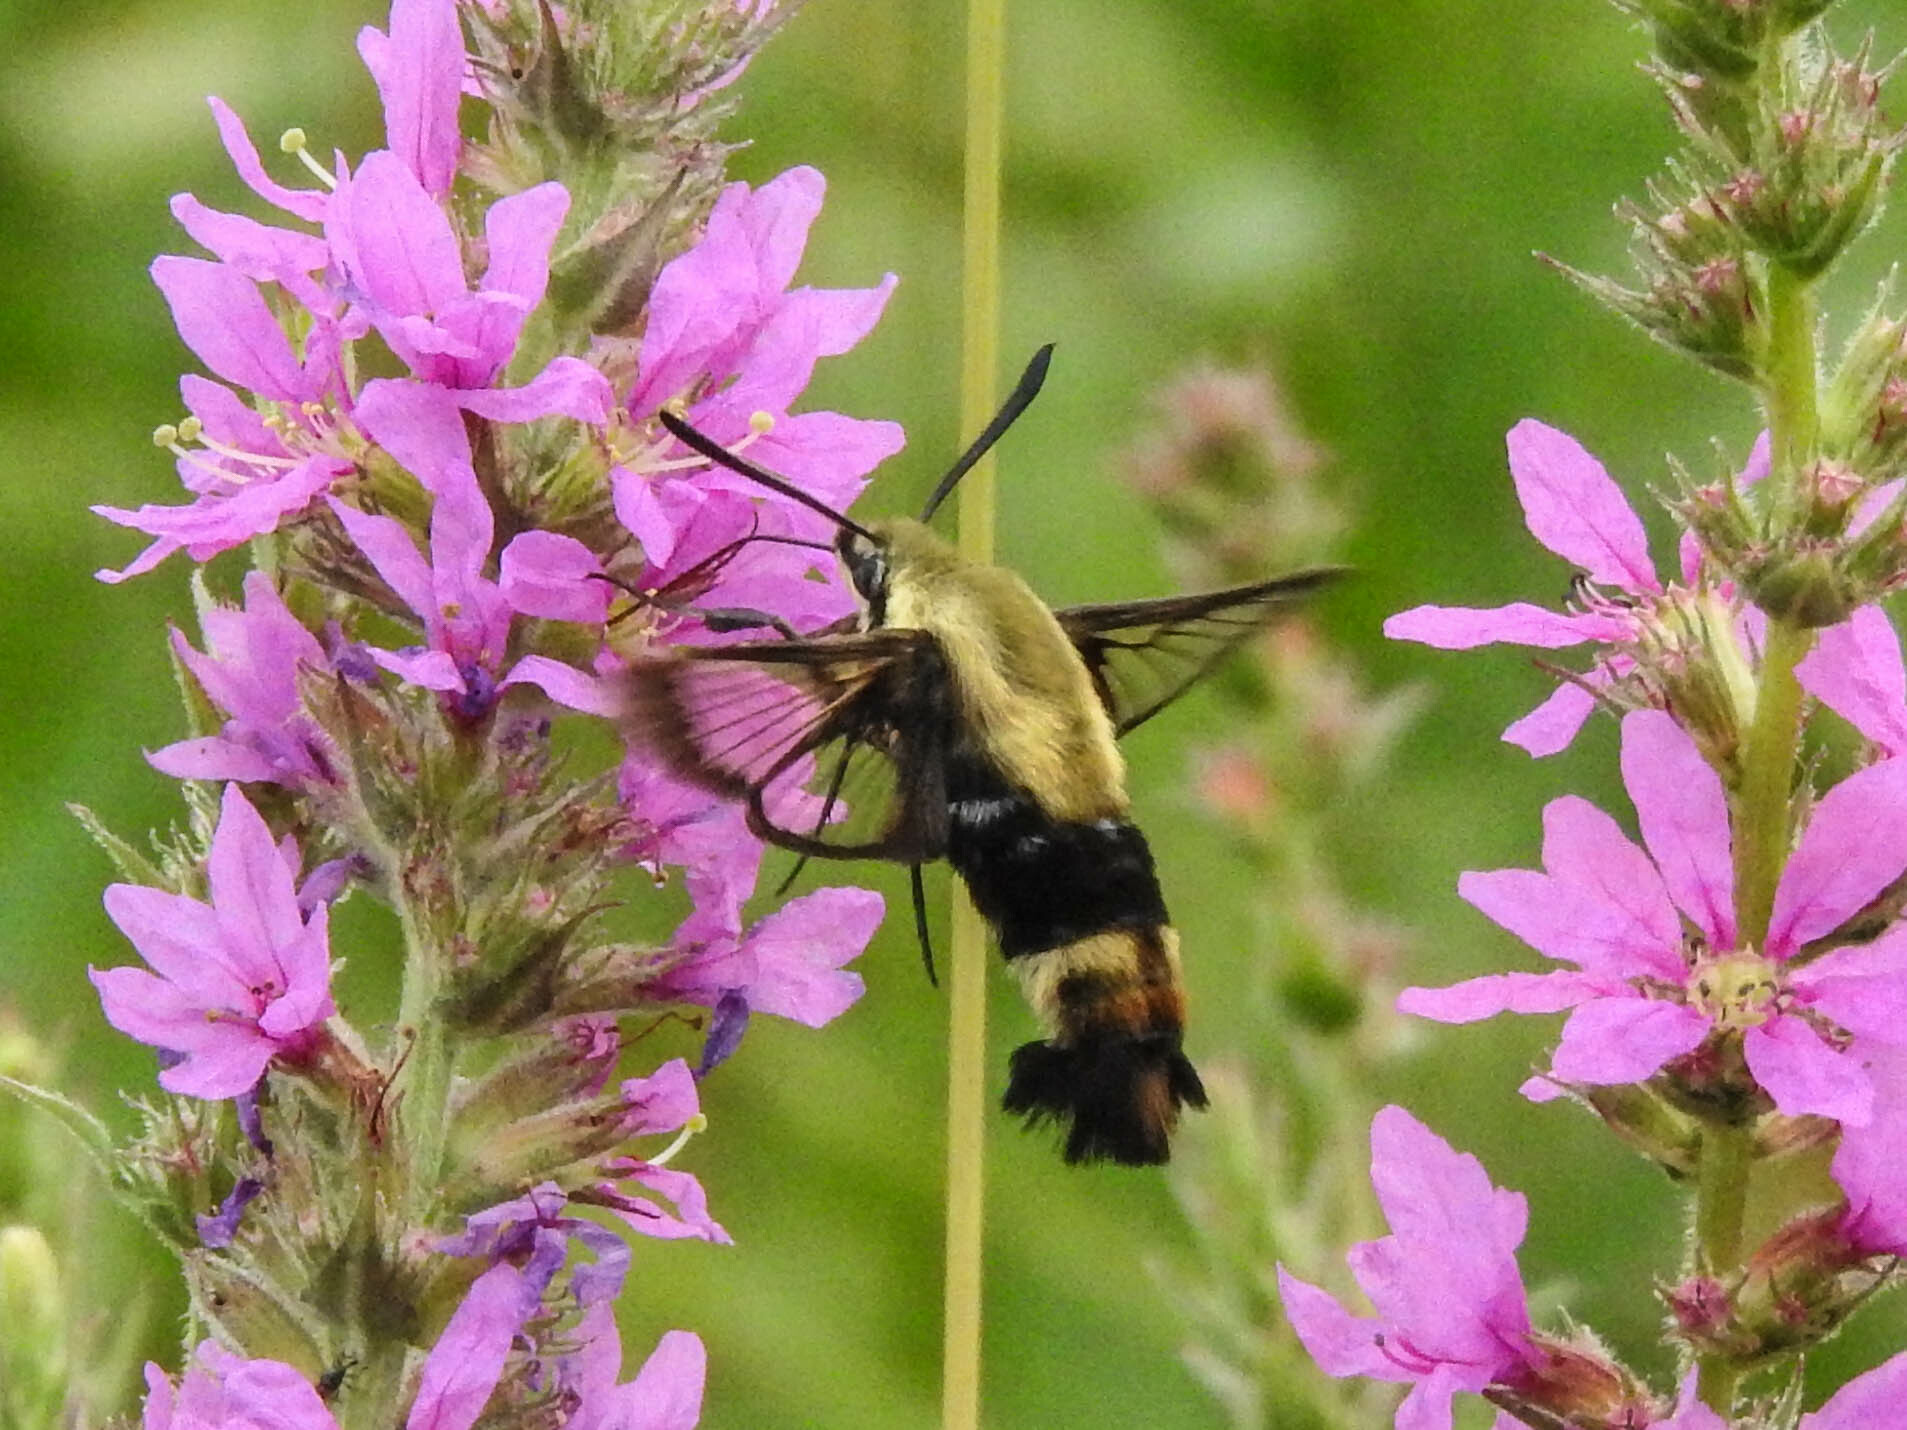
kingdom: Animalia
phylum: Arthropoda
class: Insecta
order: Lepidoptera
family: Sphingidae
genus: Hemaris
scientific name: Hemaris diffinis
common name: Bumblebee moth
